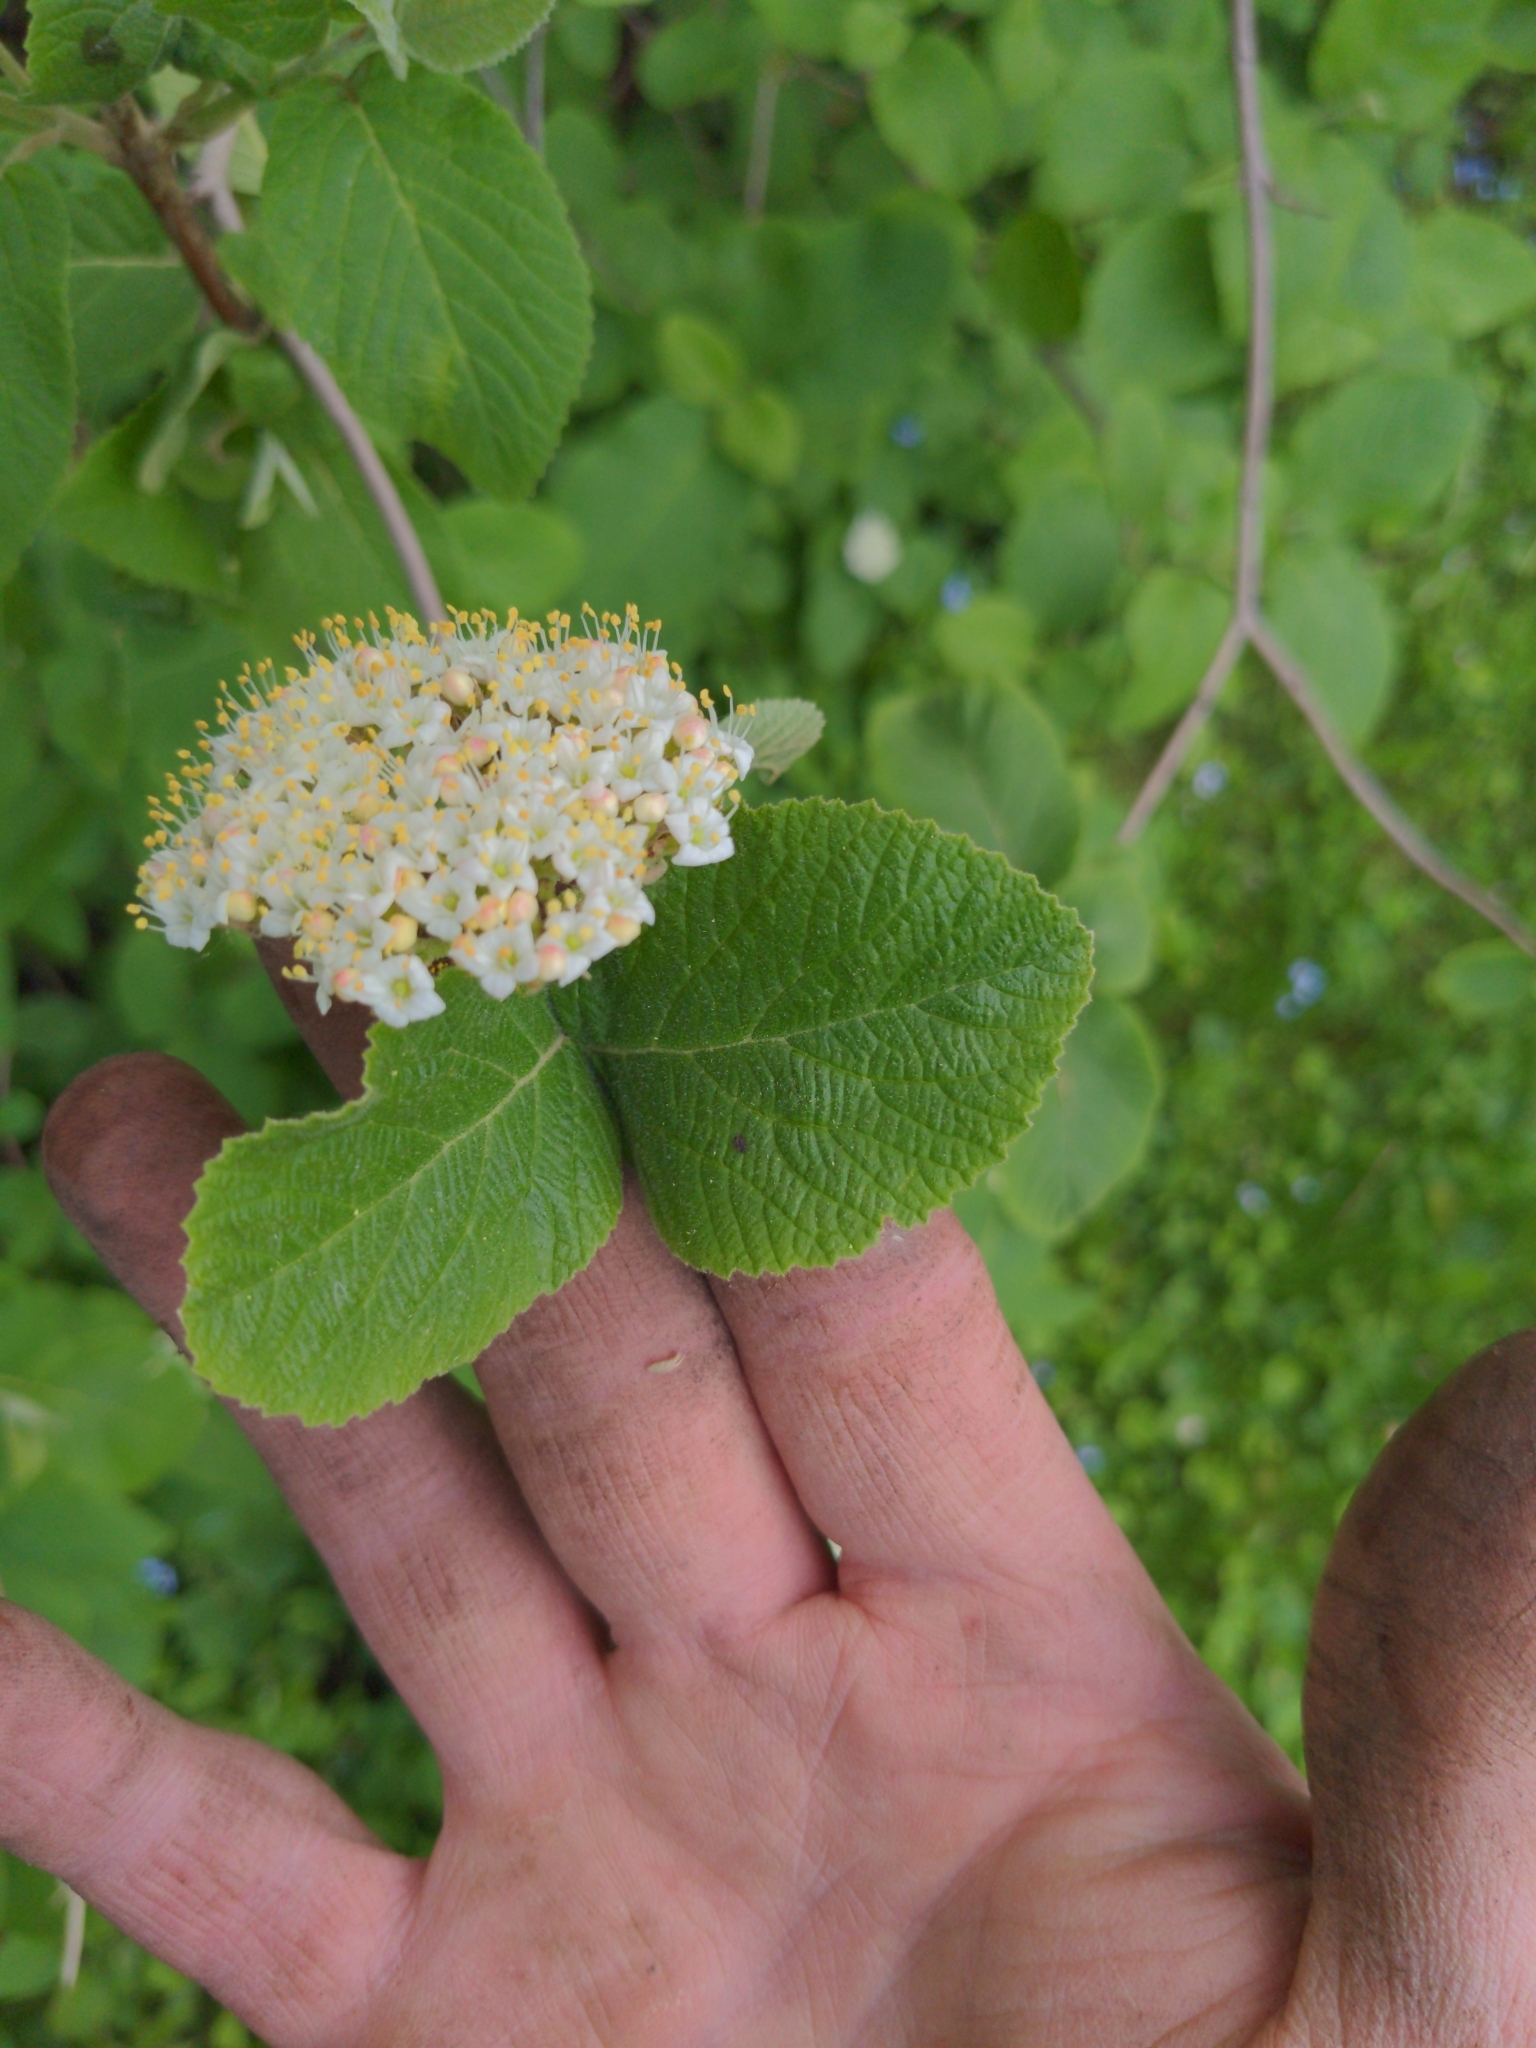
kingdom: Plantae
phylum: Tracheophyta
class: Magnoliopsida
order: Dipsacales
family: Viburnaceae
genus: Viburnum
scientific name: Viburnum lantana
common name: Wayfaring tree
